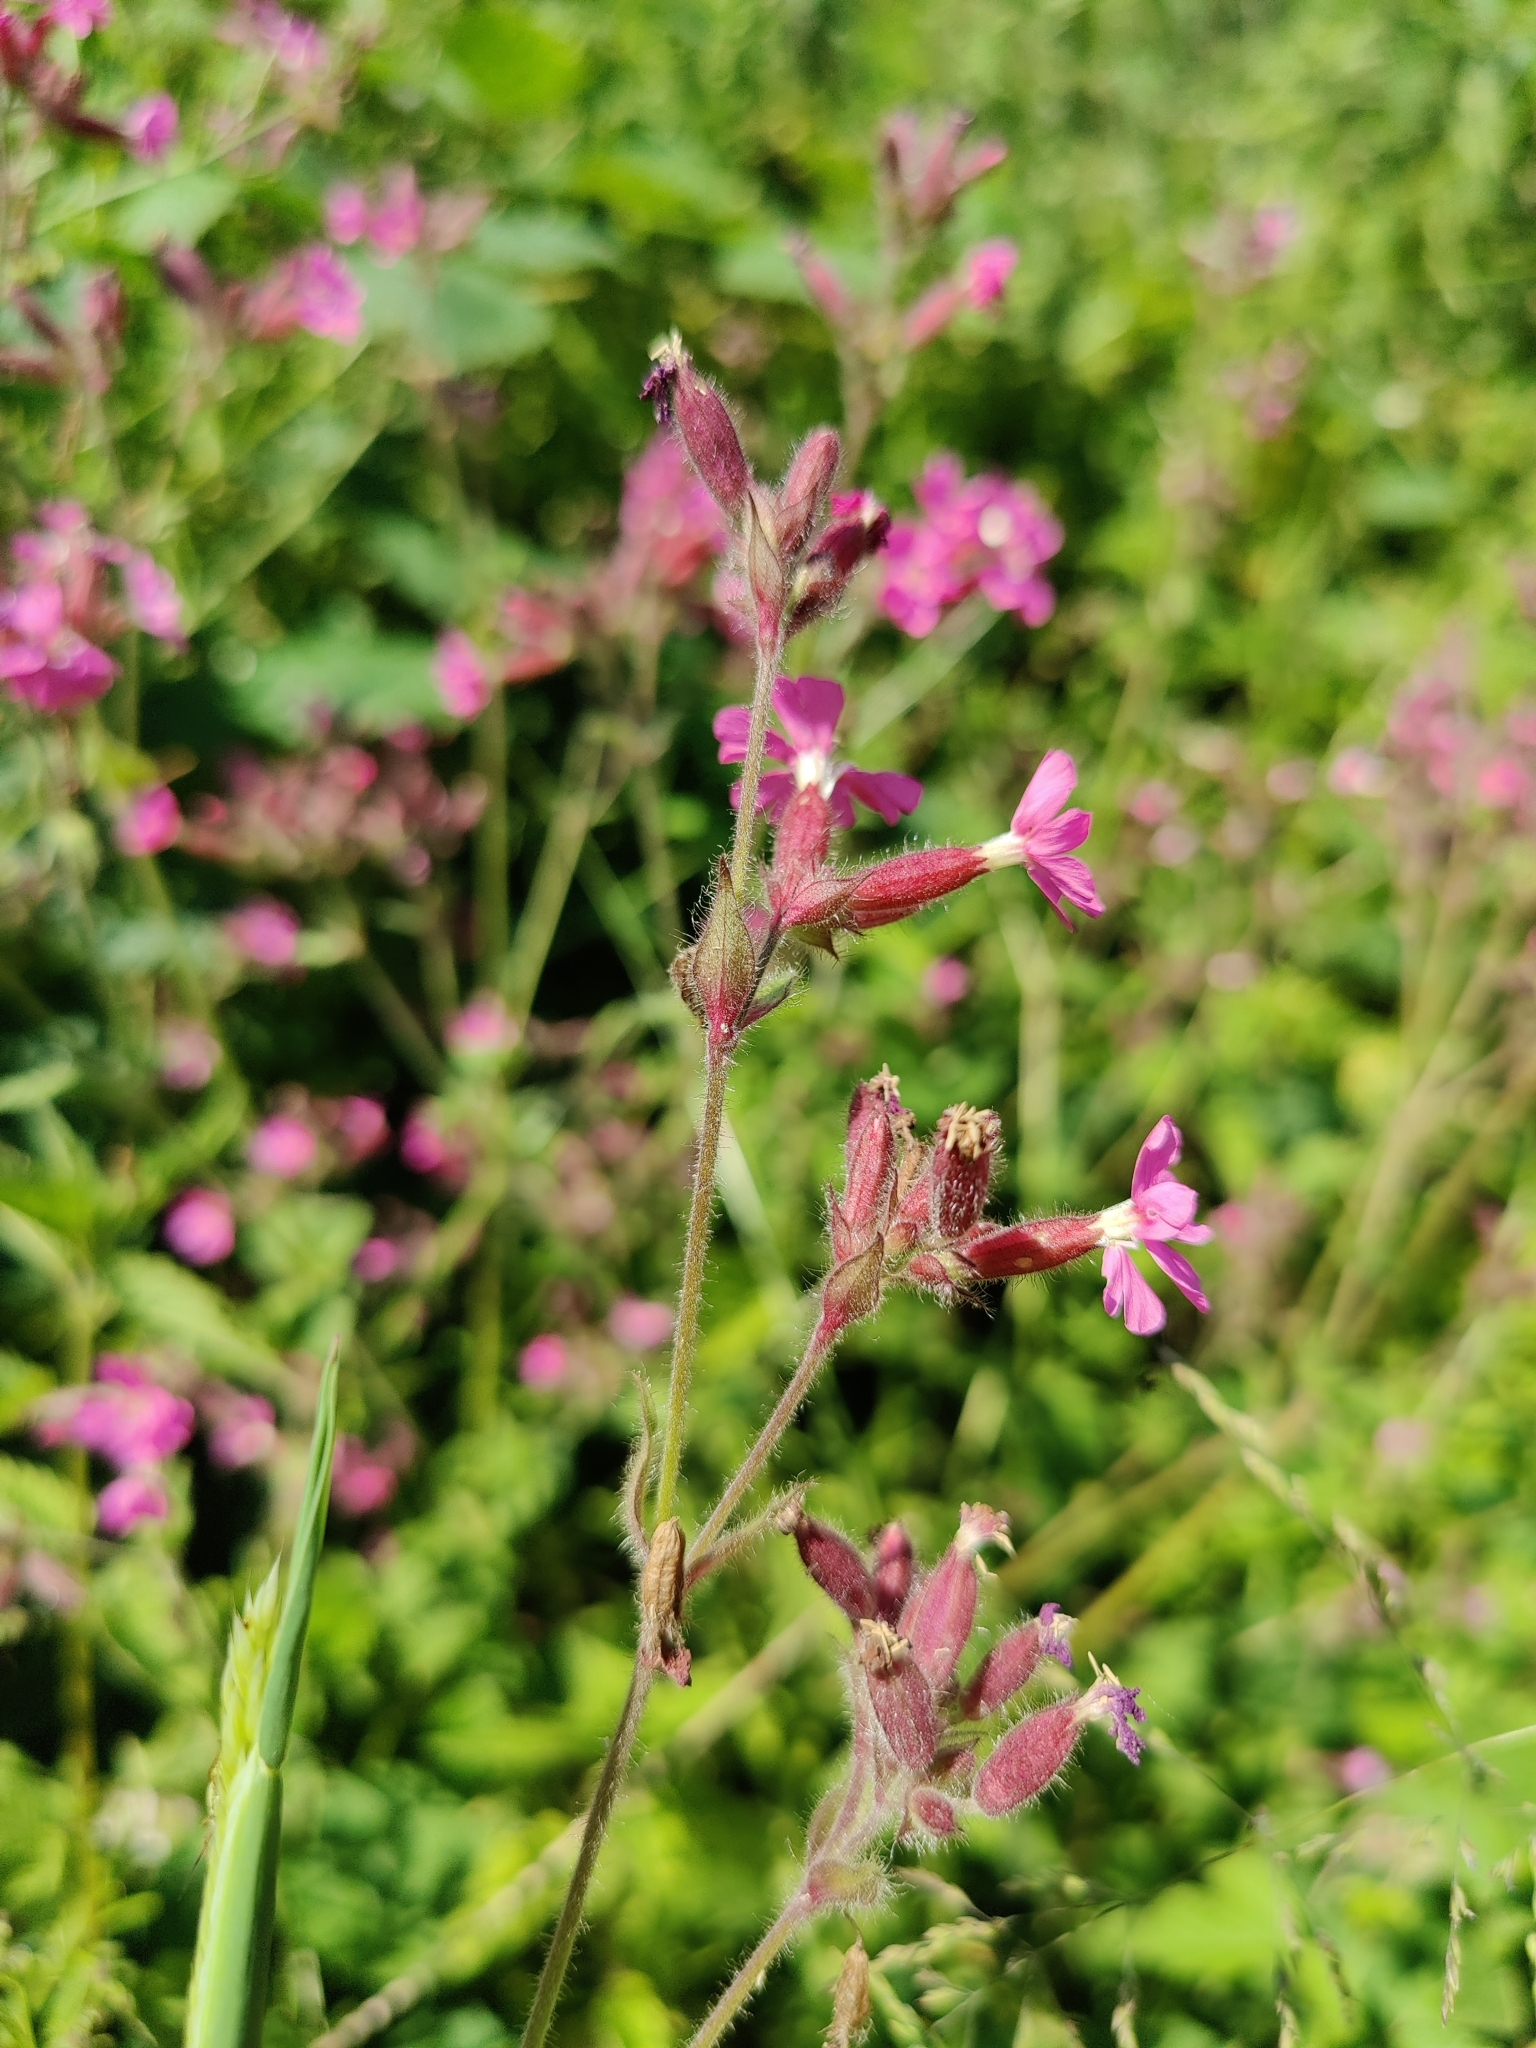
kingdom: Plantae
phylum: Tracheophyta
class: Magnoliopsida
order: Caryophyllales
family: Caryophyllaceae
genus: Silene
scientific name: Silene dioica
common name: Red campion
